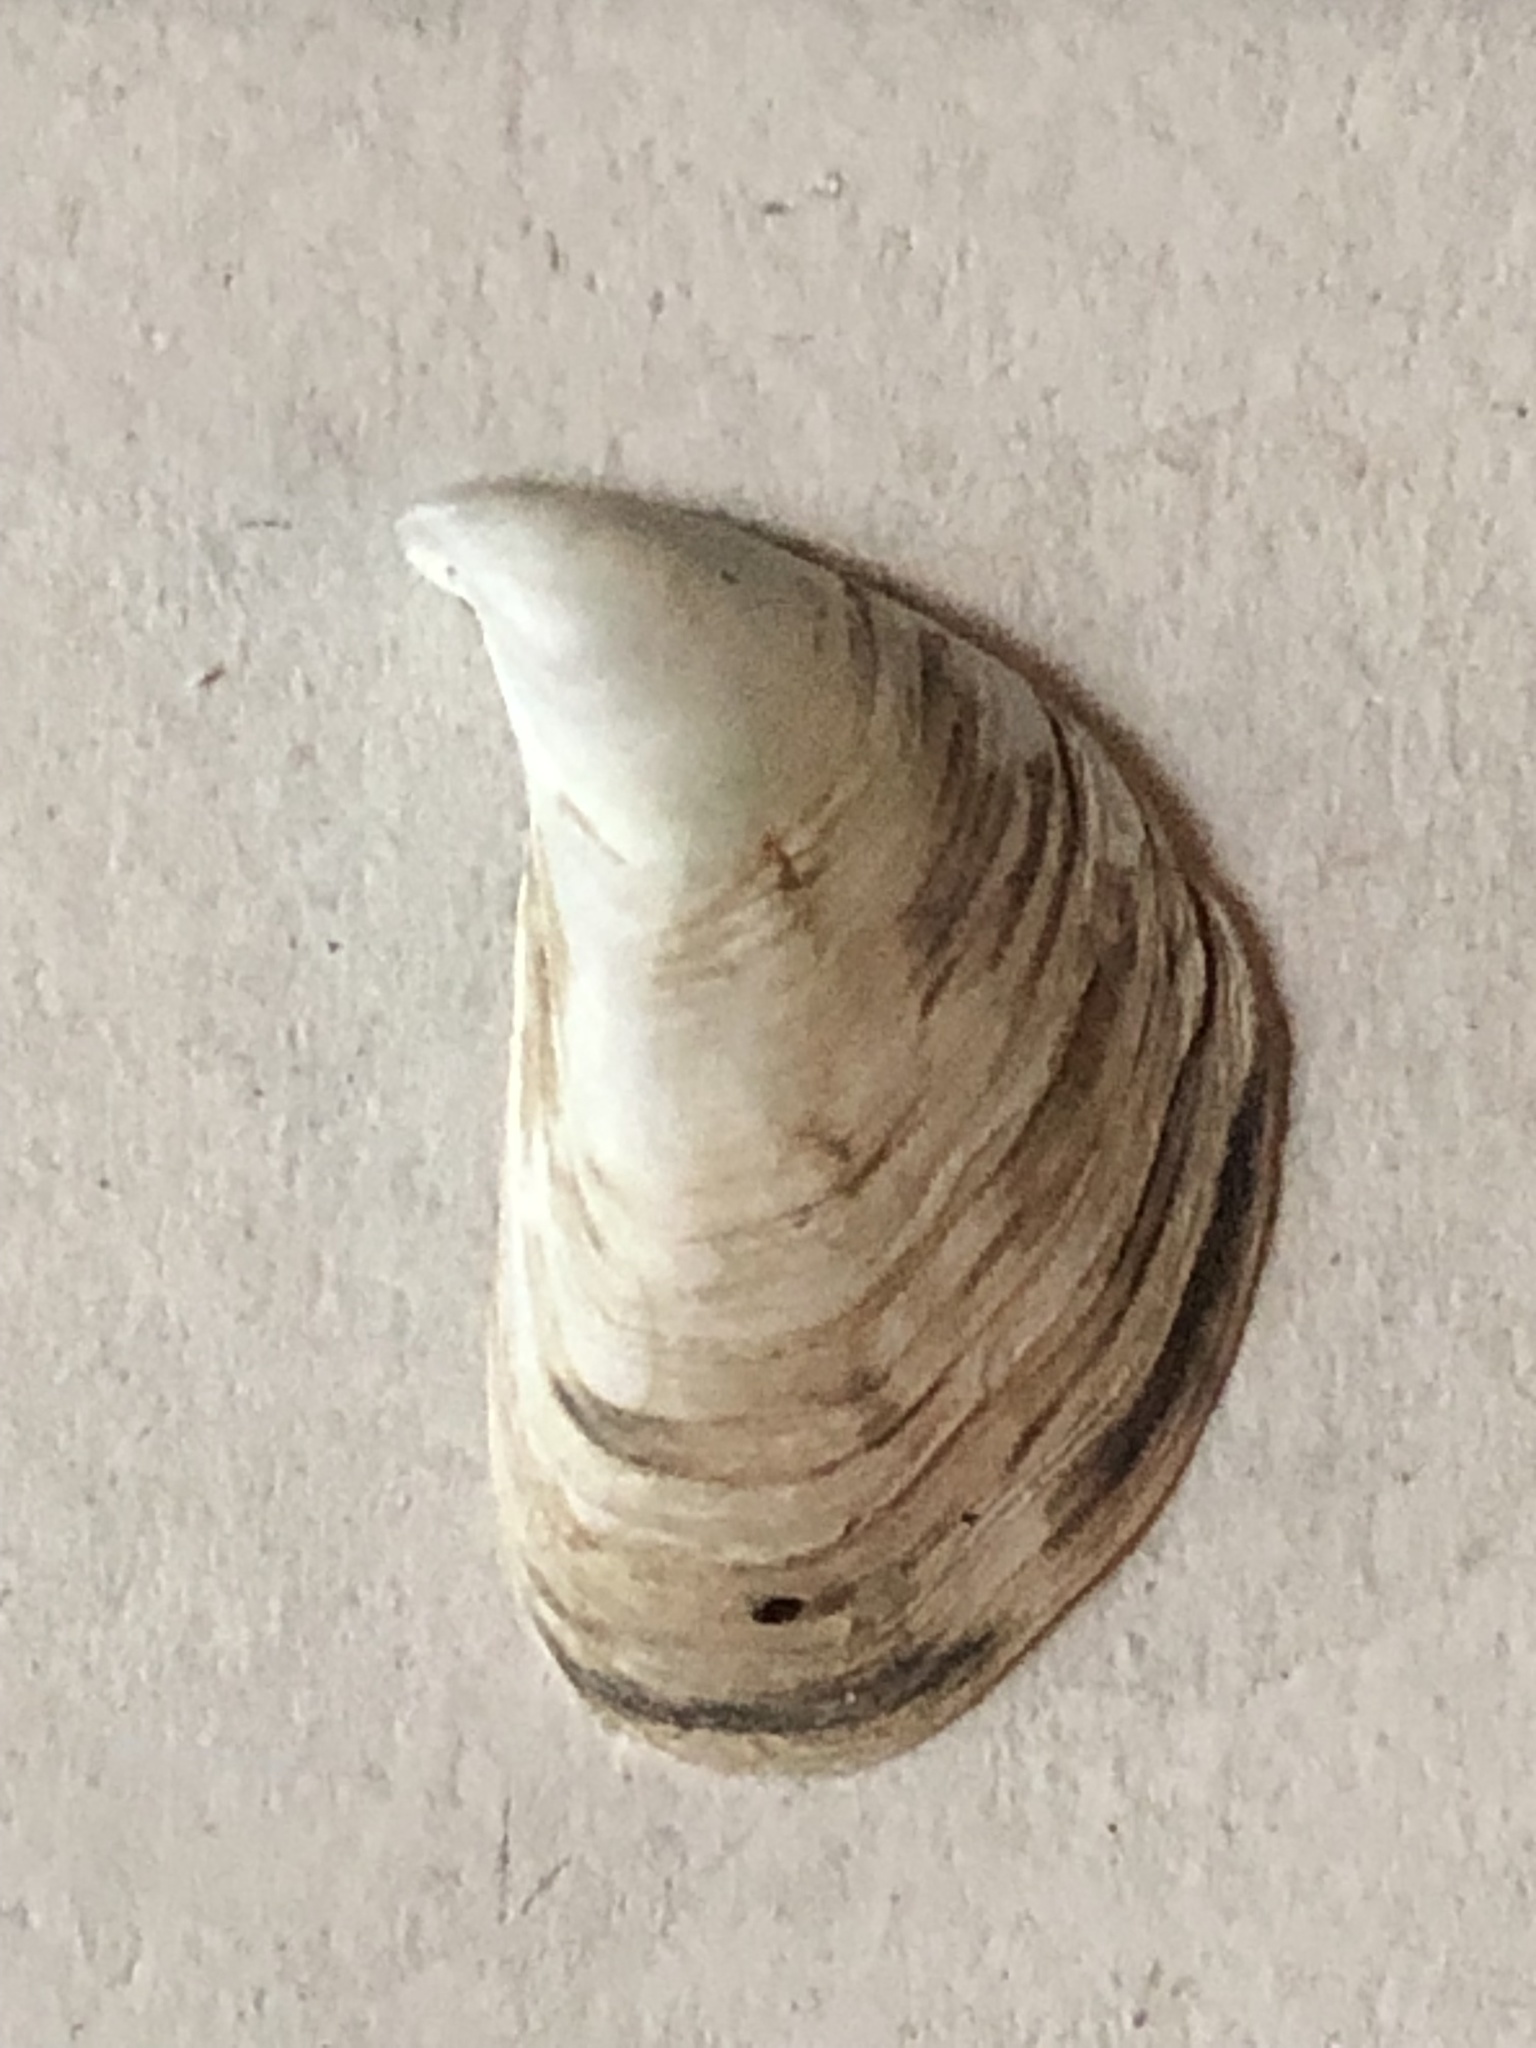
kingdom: Animalia
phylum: Mollusca
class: Bivalvia
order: Myida
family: Dreissenidae
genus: Dreissena
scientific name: Dreissena bugensis
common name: Quagga mussel
